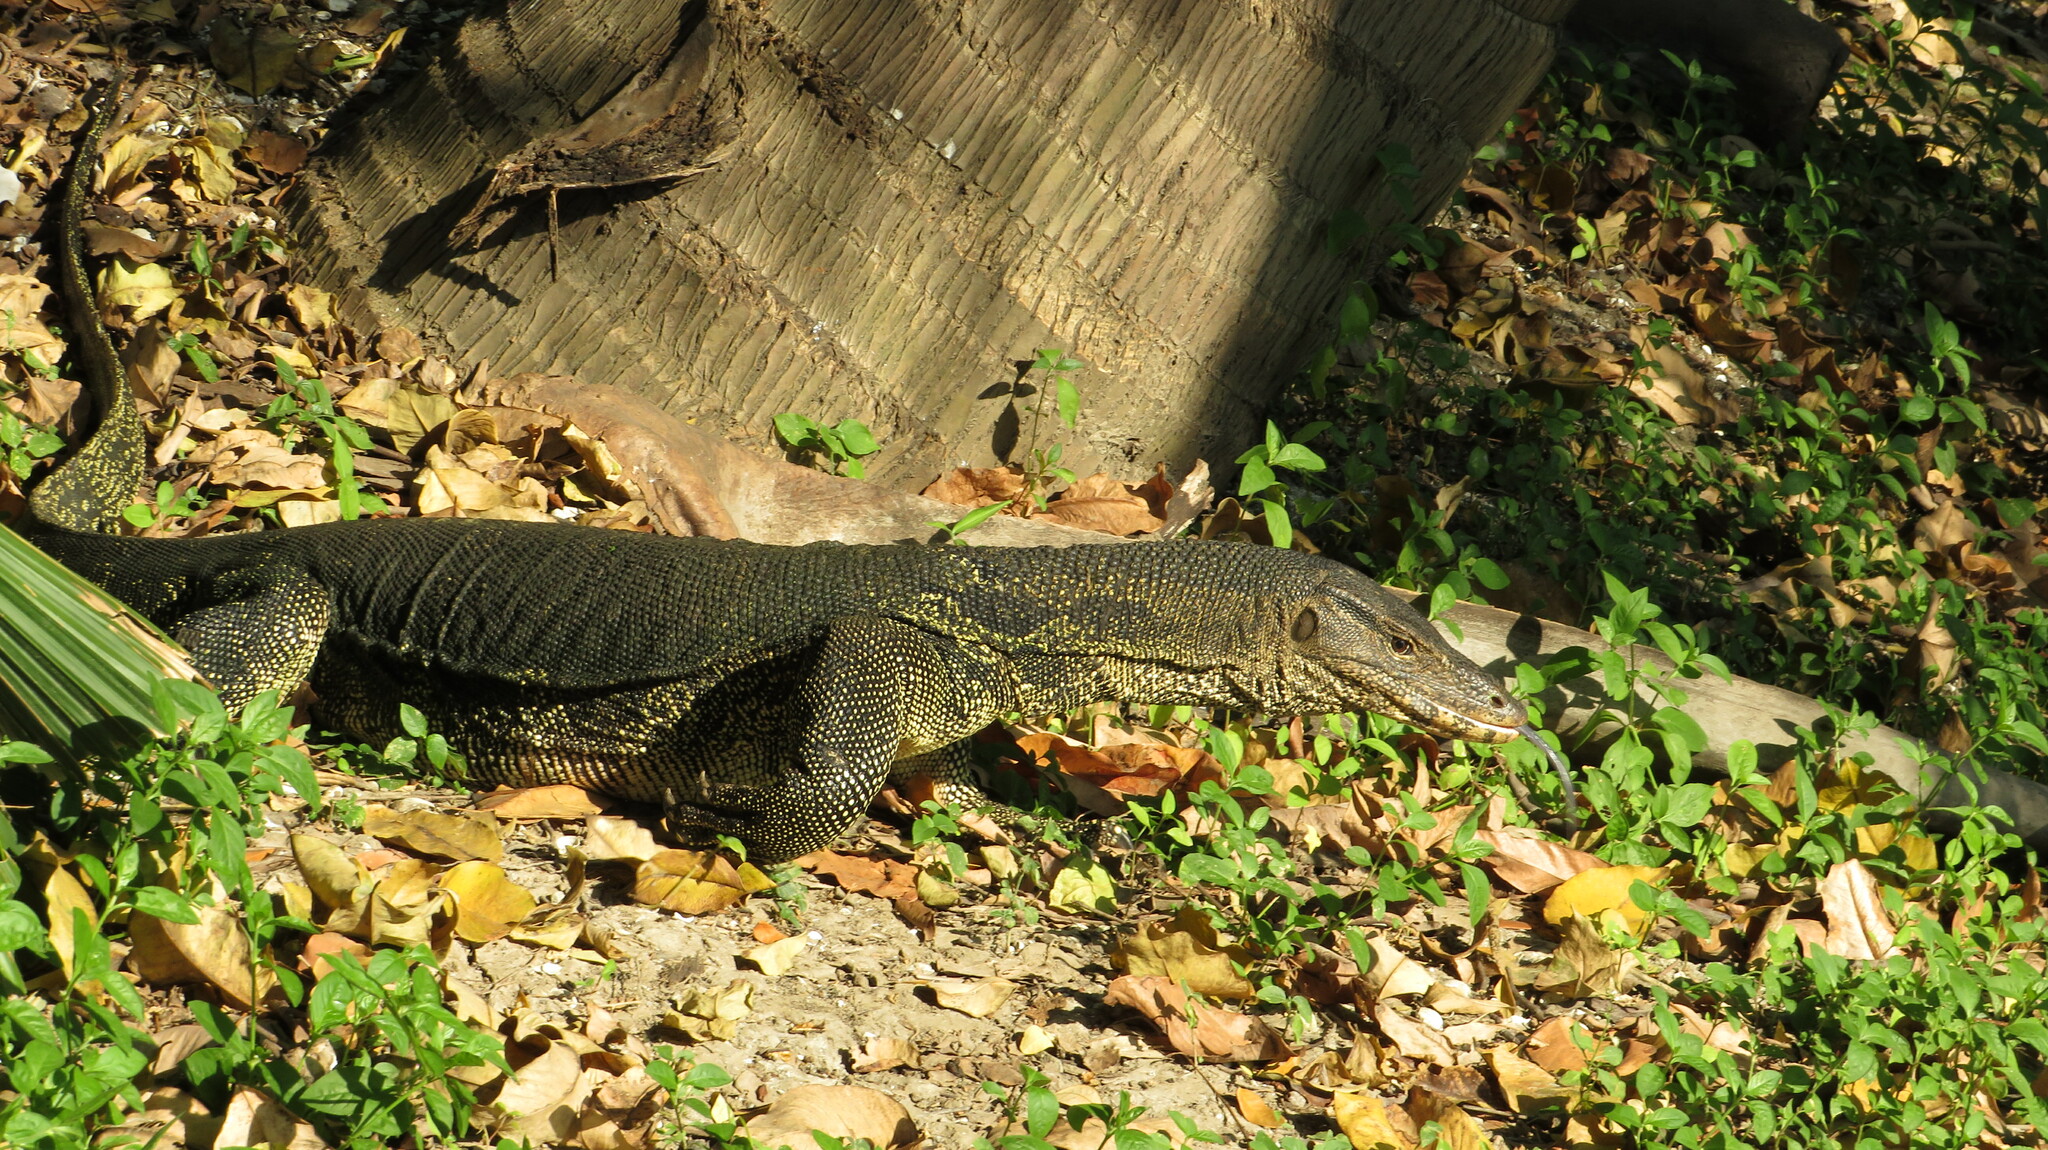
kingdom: Animalia
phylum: Chordata
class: Squamata
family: Varanidae
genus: Varanus
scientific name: Varanus salvator
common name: Common water monitor
